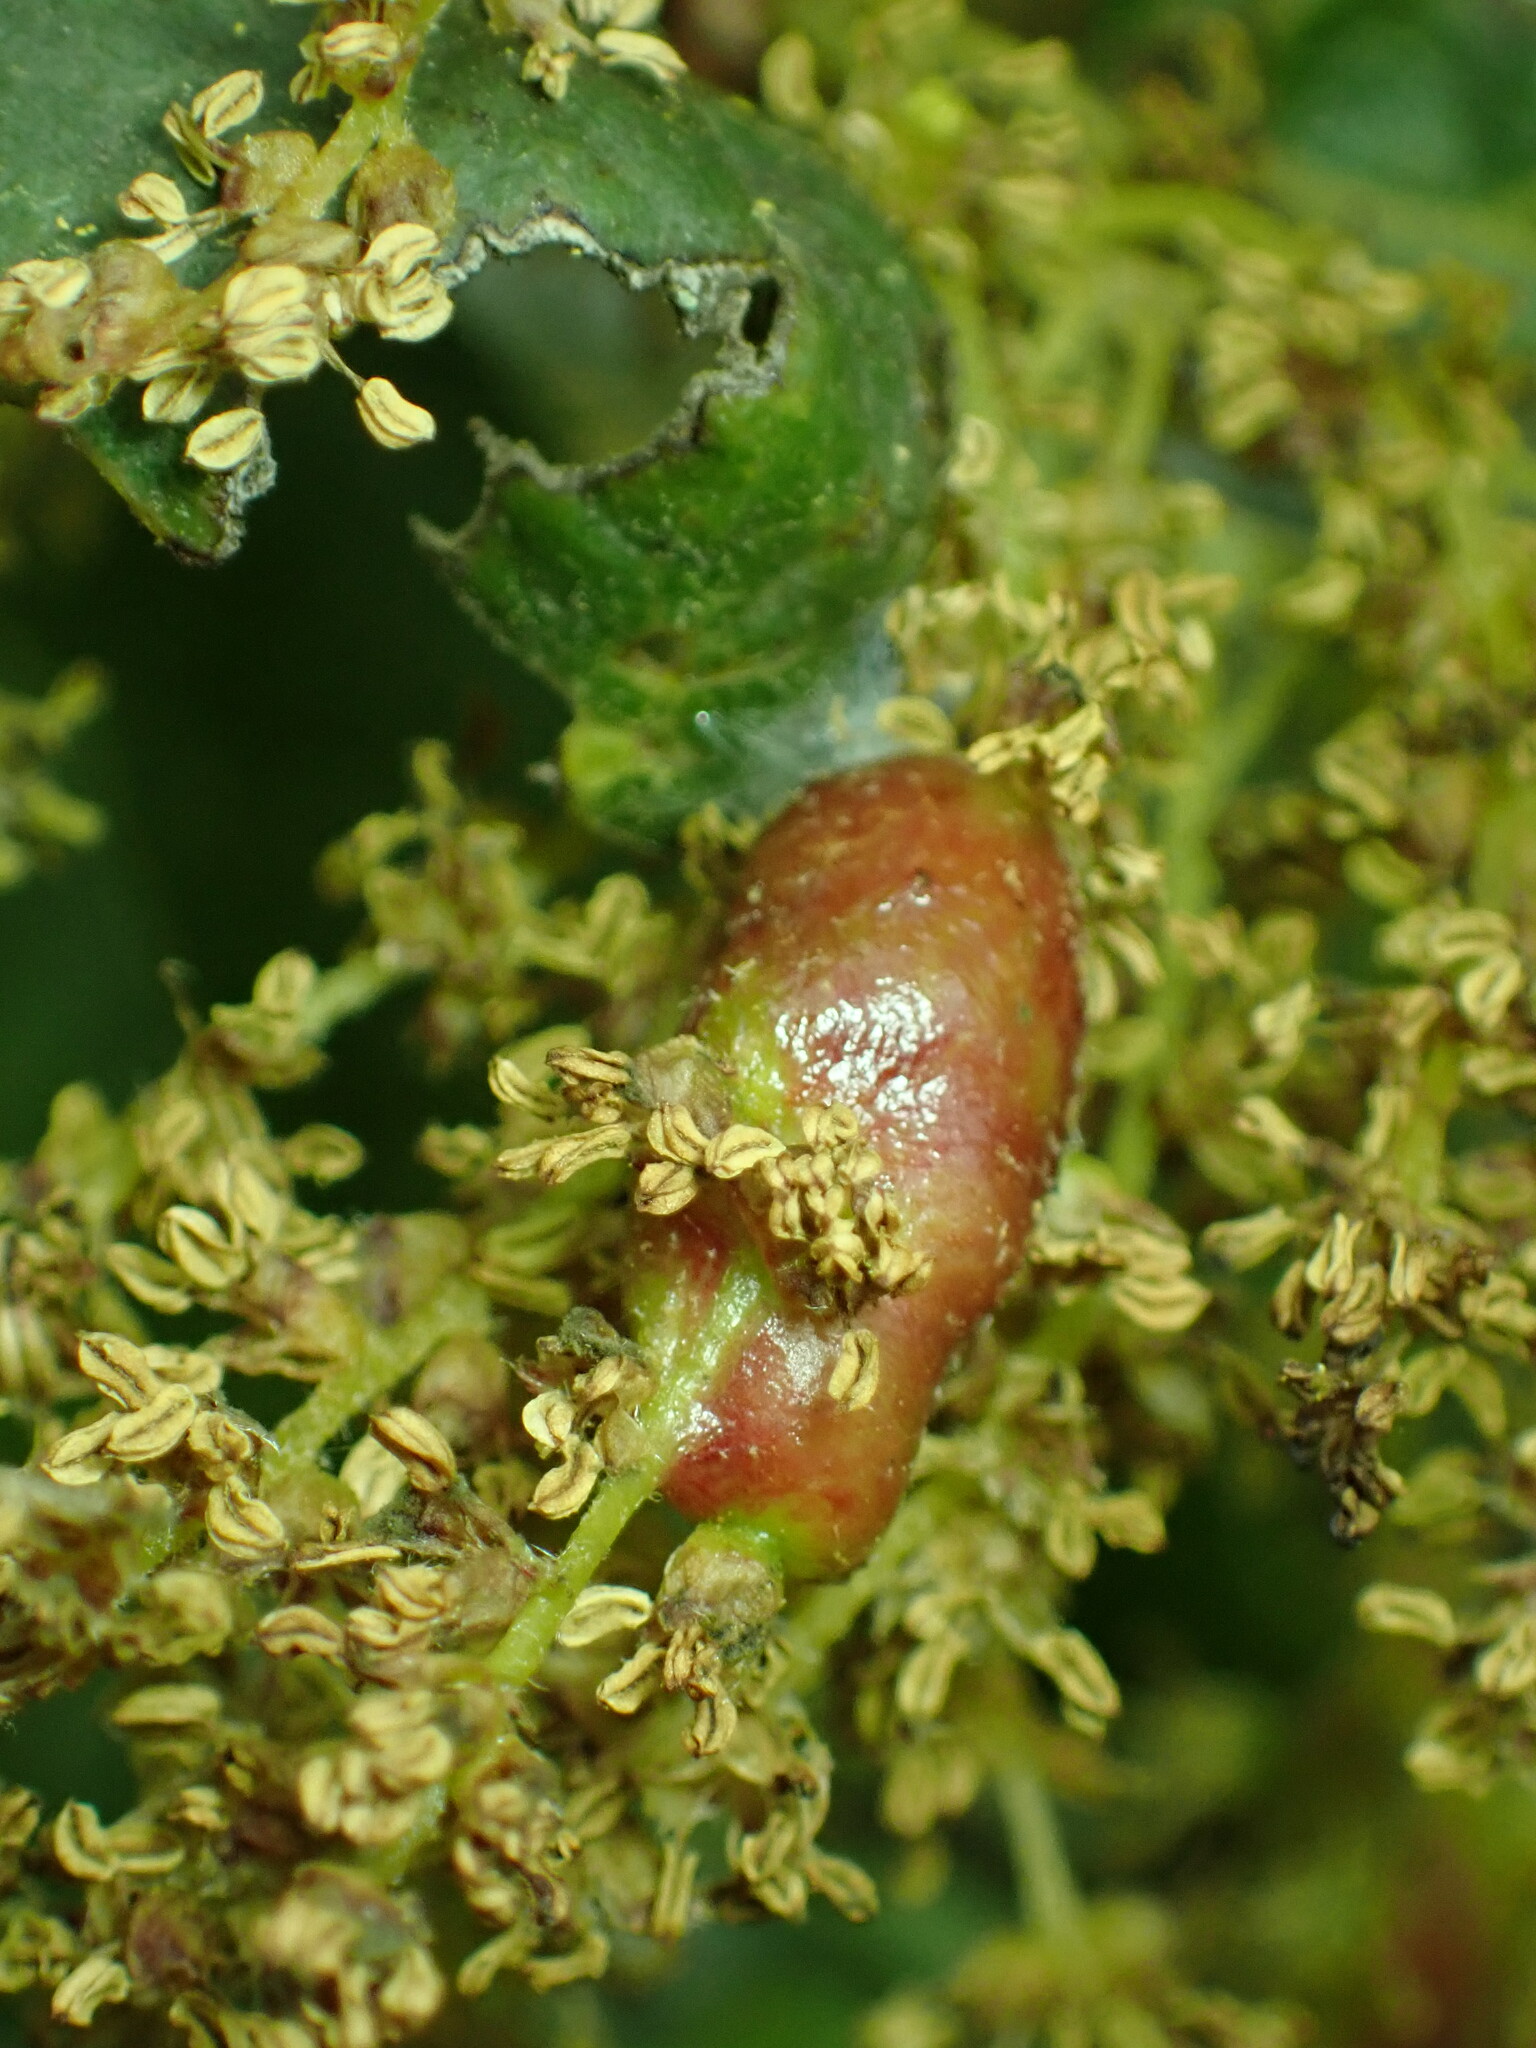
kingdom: Animalia
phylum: Arthropoda
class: Insecta
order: Hymenoptera
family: Cynipidae
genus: Callirhytis
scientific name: Callirhytis
